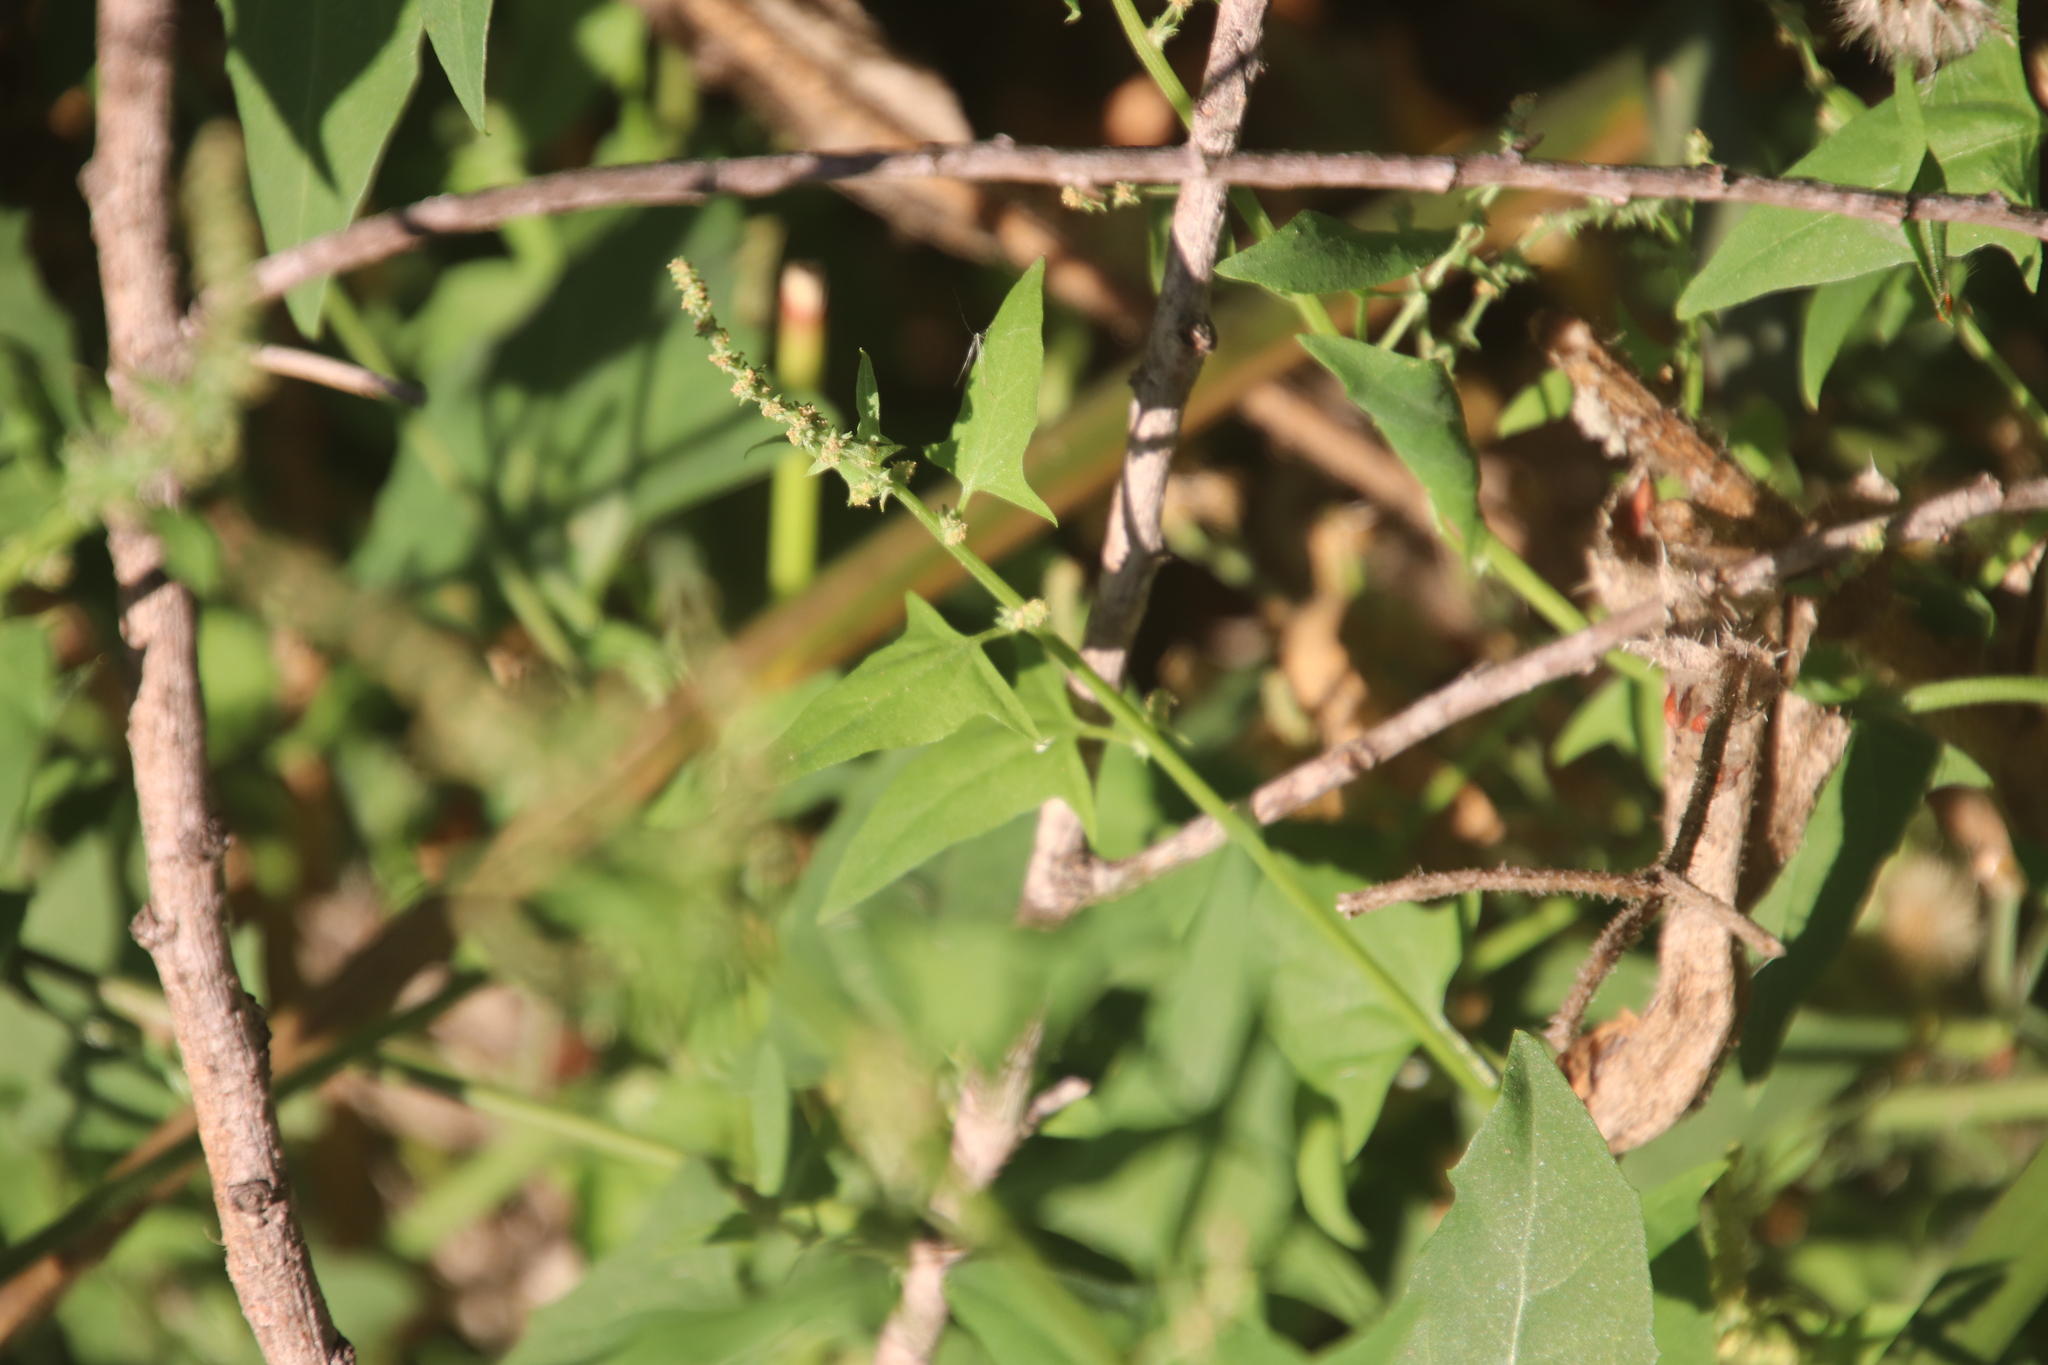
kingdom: Plantae
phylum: Tracheophyta
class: Magnoliopsida
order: Caryophyllales
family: Amaranthaceae
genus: Atriplex
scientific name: Atriplex prostrata
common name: Spear-leaved orache
